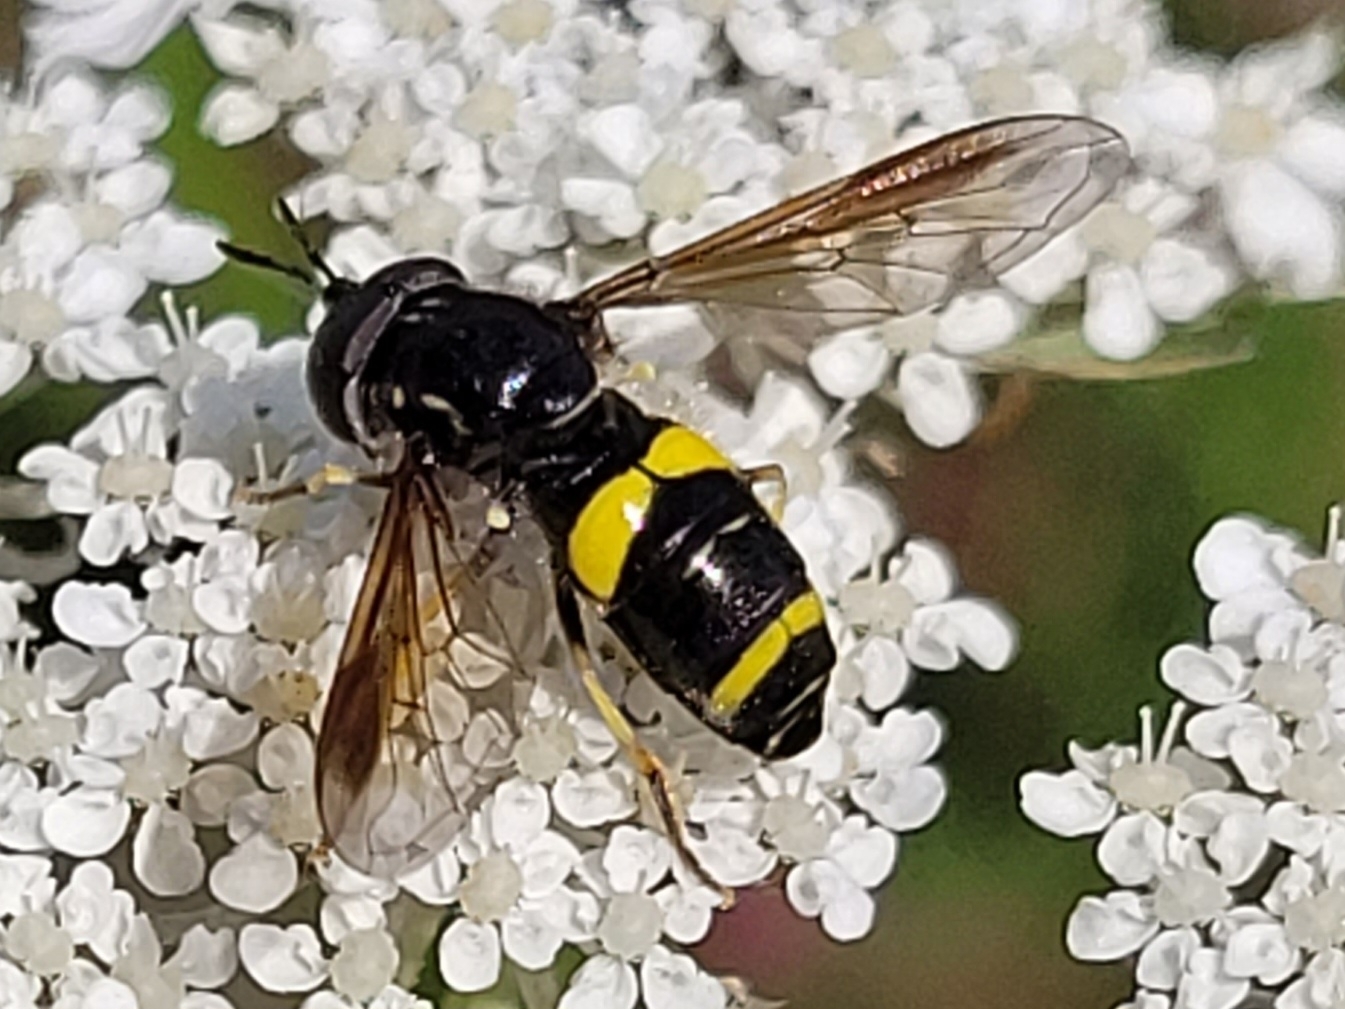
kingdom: Animalia
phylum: Arthropoda
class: Insecta
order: Diptera
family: Syrphidae
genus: Chrysotoxum
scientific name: Chrysotoxum bicincta
